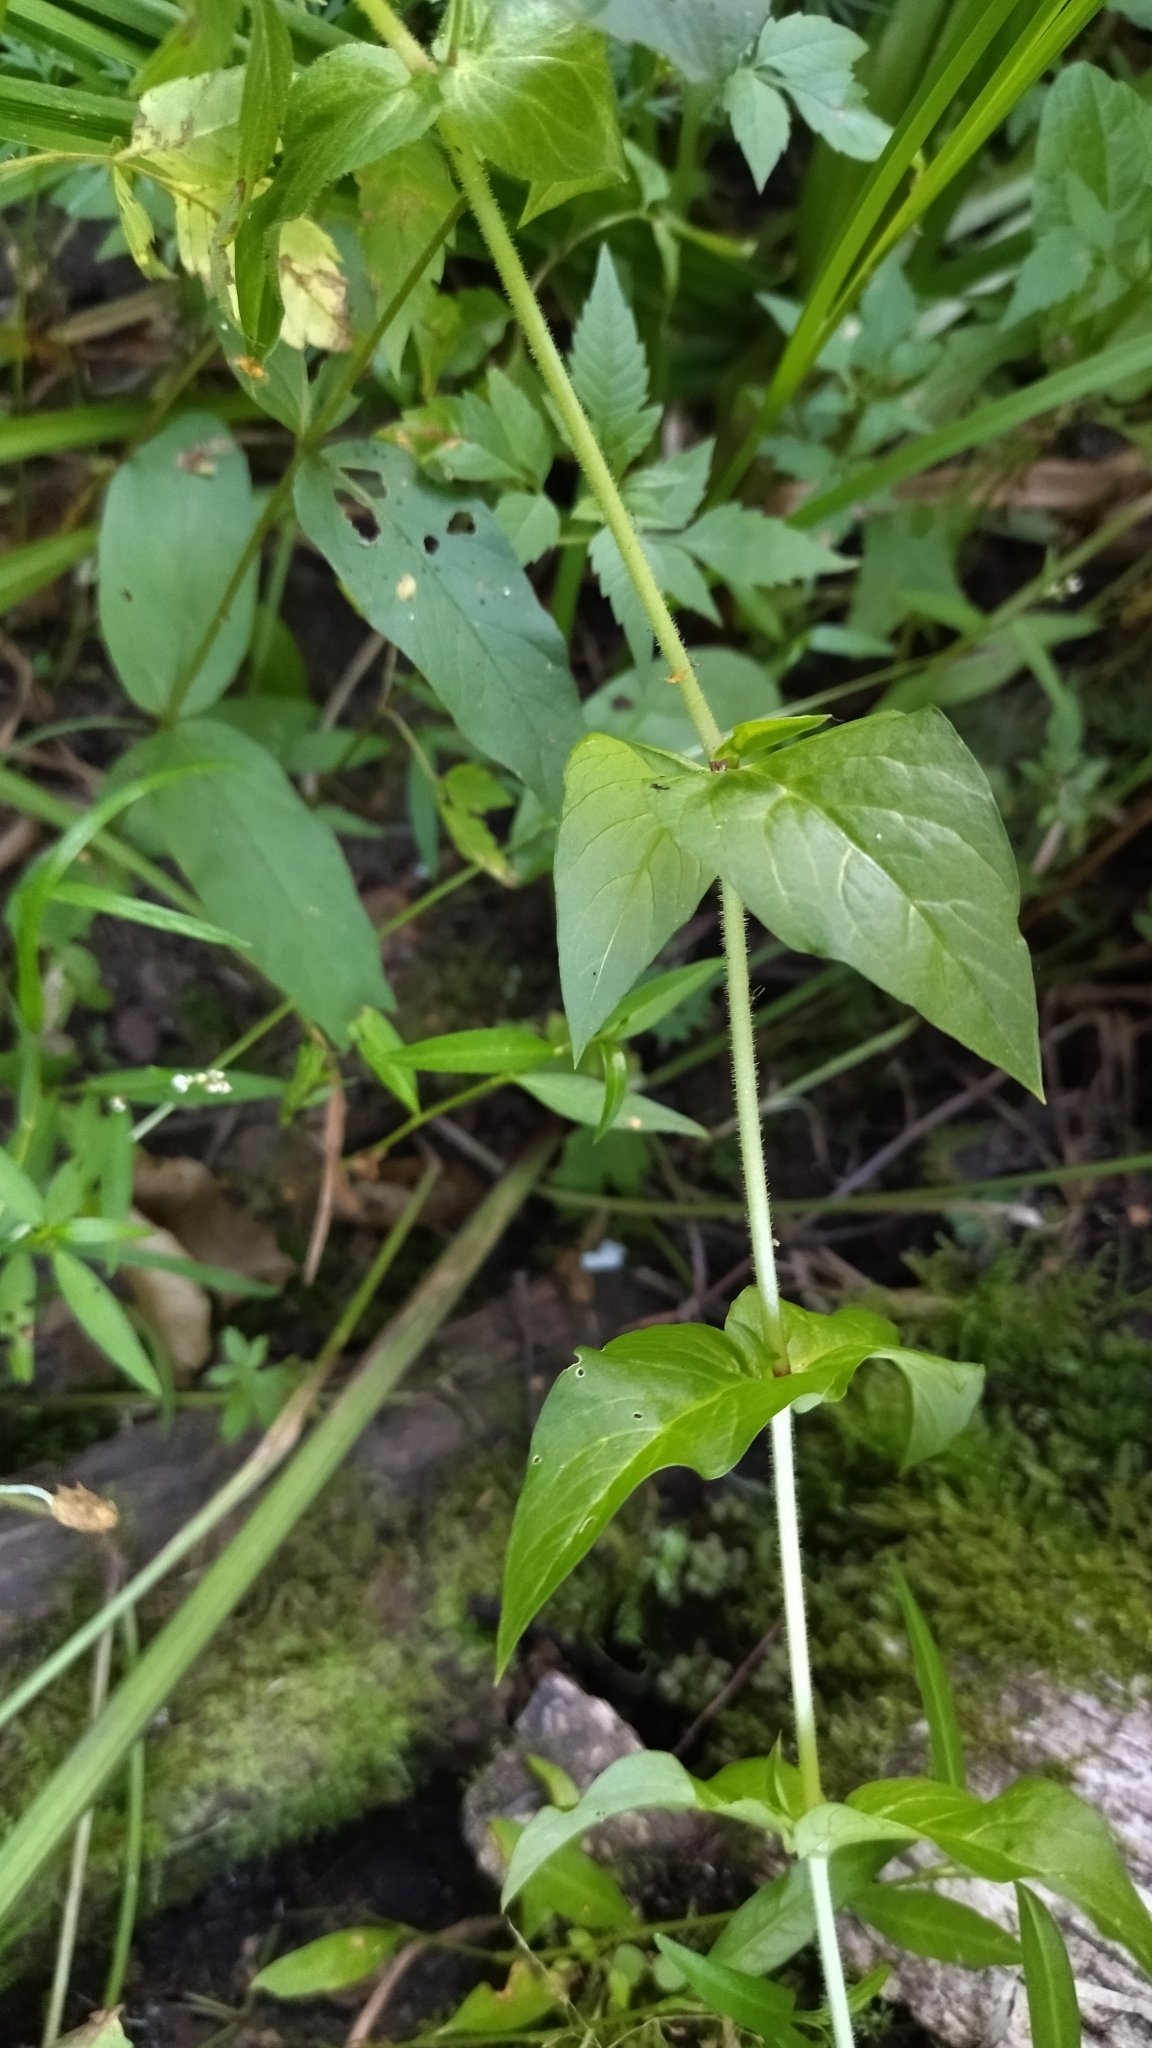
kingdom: Plantae
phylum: Tracheophyta
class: Magnoliopsida
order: Caryophyllales
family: Caryophyllaceae
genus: Stellaria
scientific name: Stellaria aquatica
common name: Water chickweed
